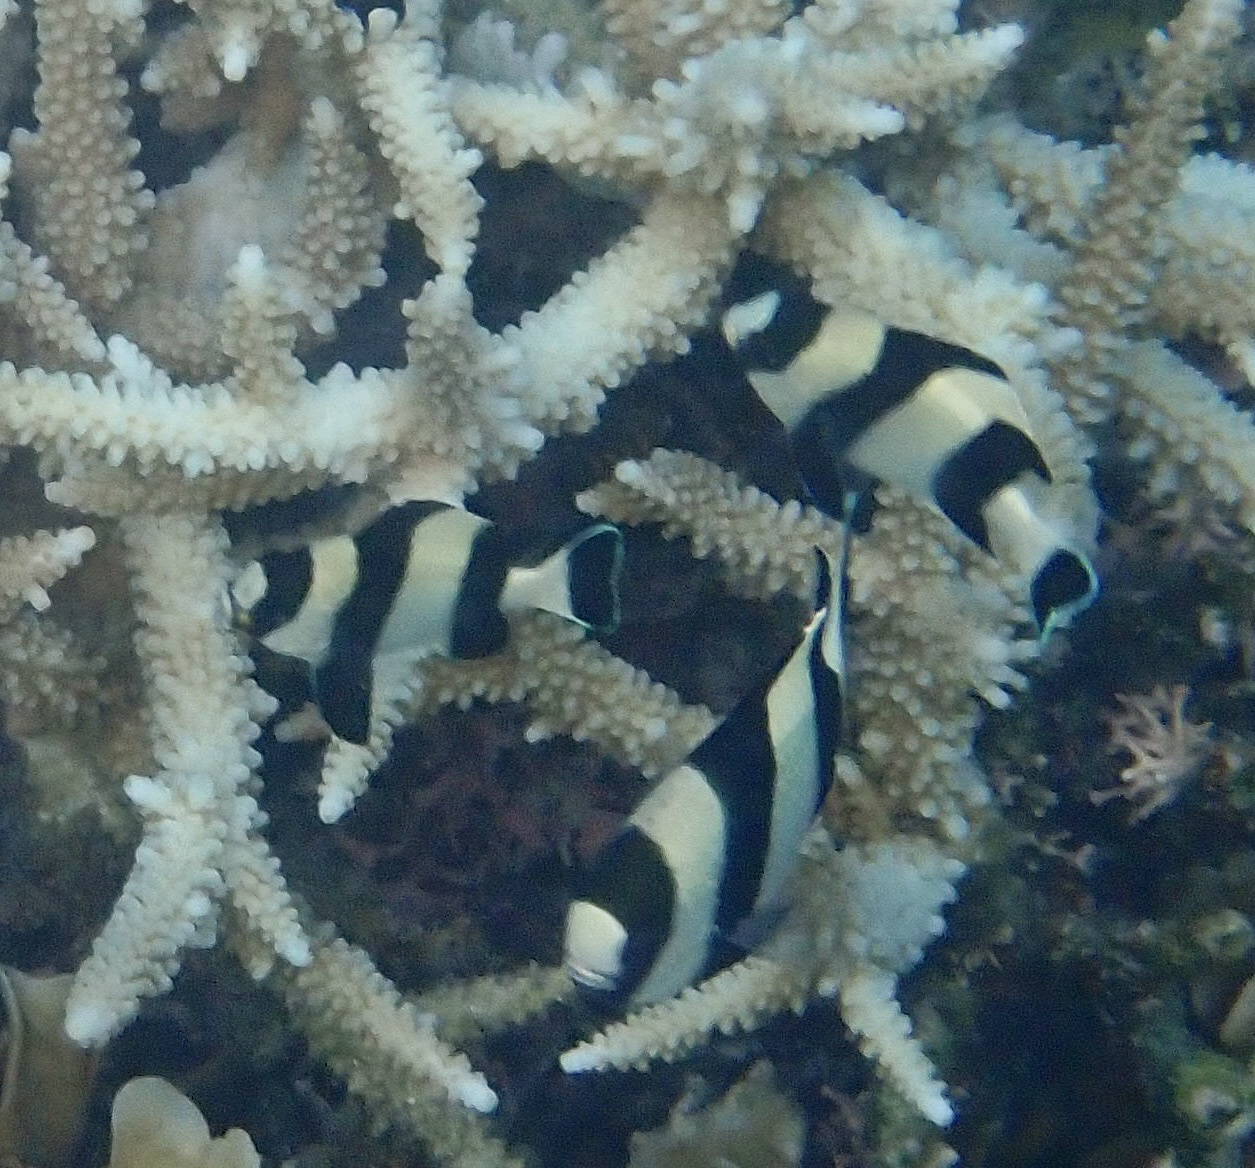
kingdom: Animalia
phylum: Chordata
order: Perciformes
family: Pomacentridae
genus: Dascyllus
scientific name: Dascyllus melanurus
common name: Black-tail dascyllus
